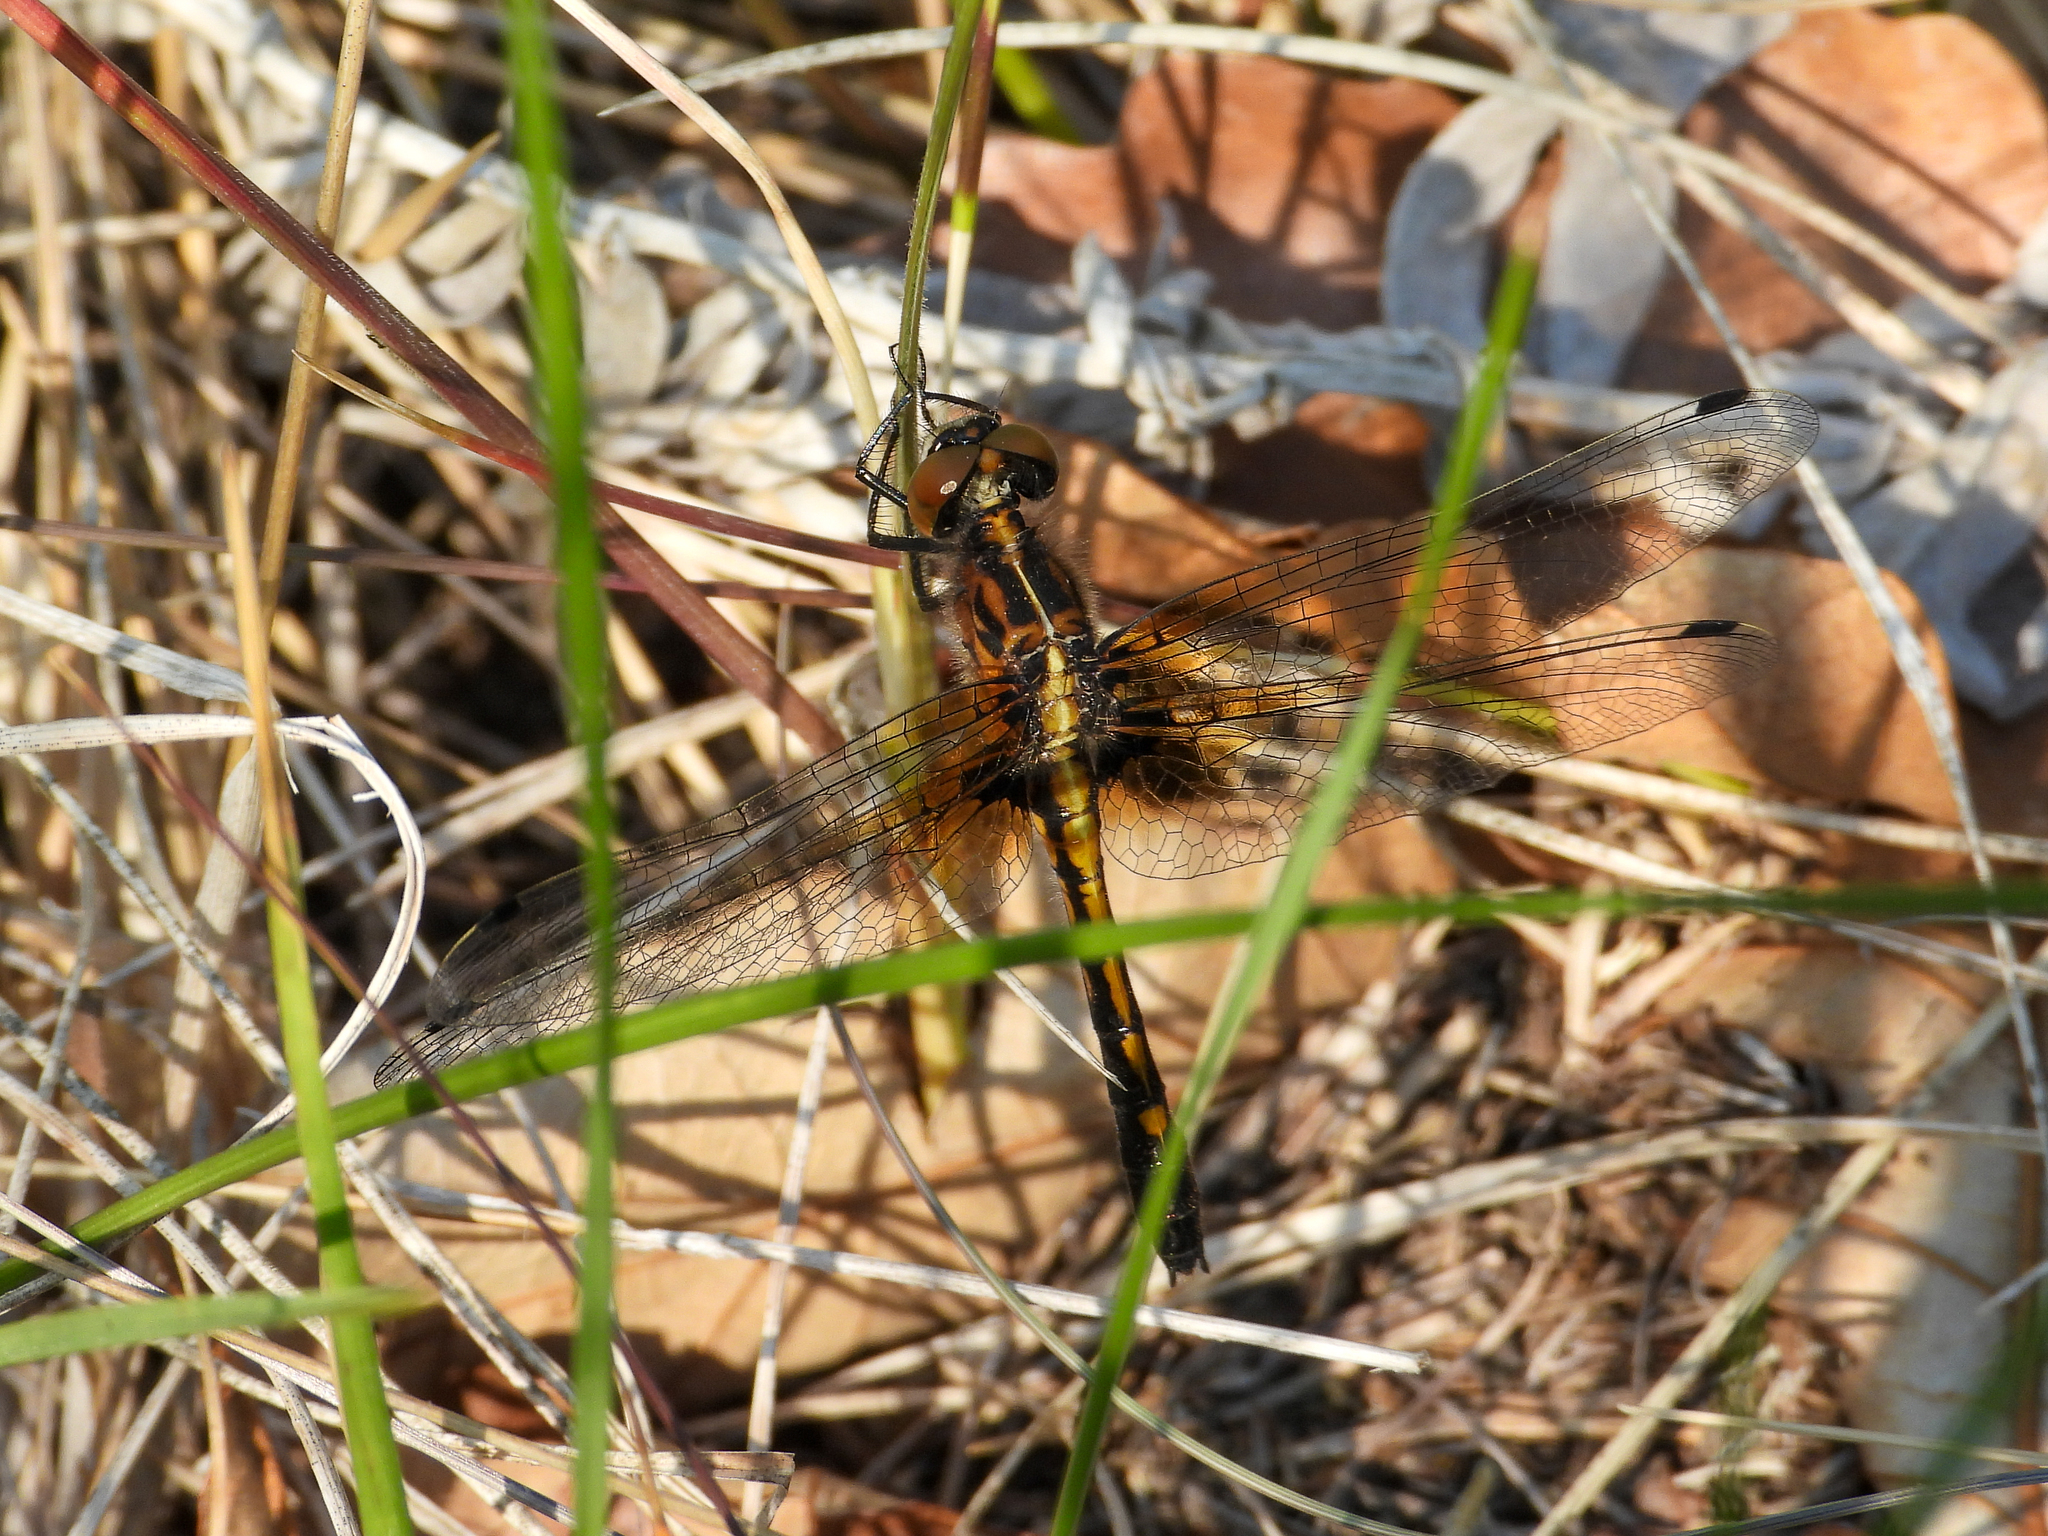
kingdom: Animalia
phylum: Arthropoda
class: Insecta
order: Odonata
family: Libellulidae
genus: Leucorrhinia
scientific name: Leucorrhinia intacta
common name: Dot-tailed whiteface
